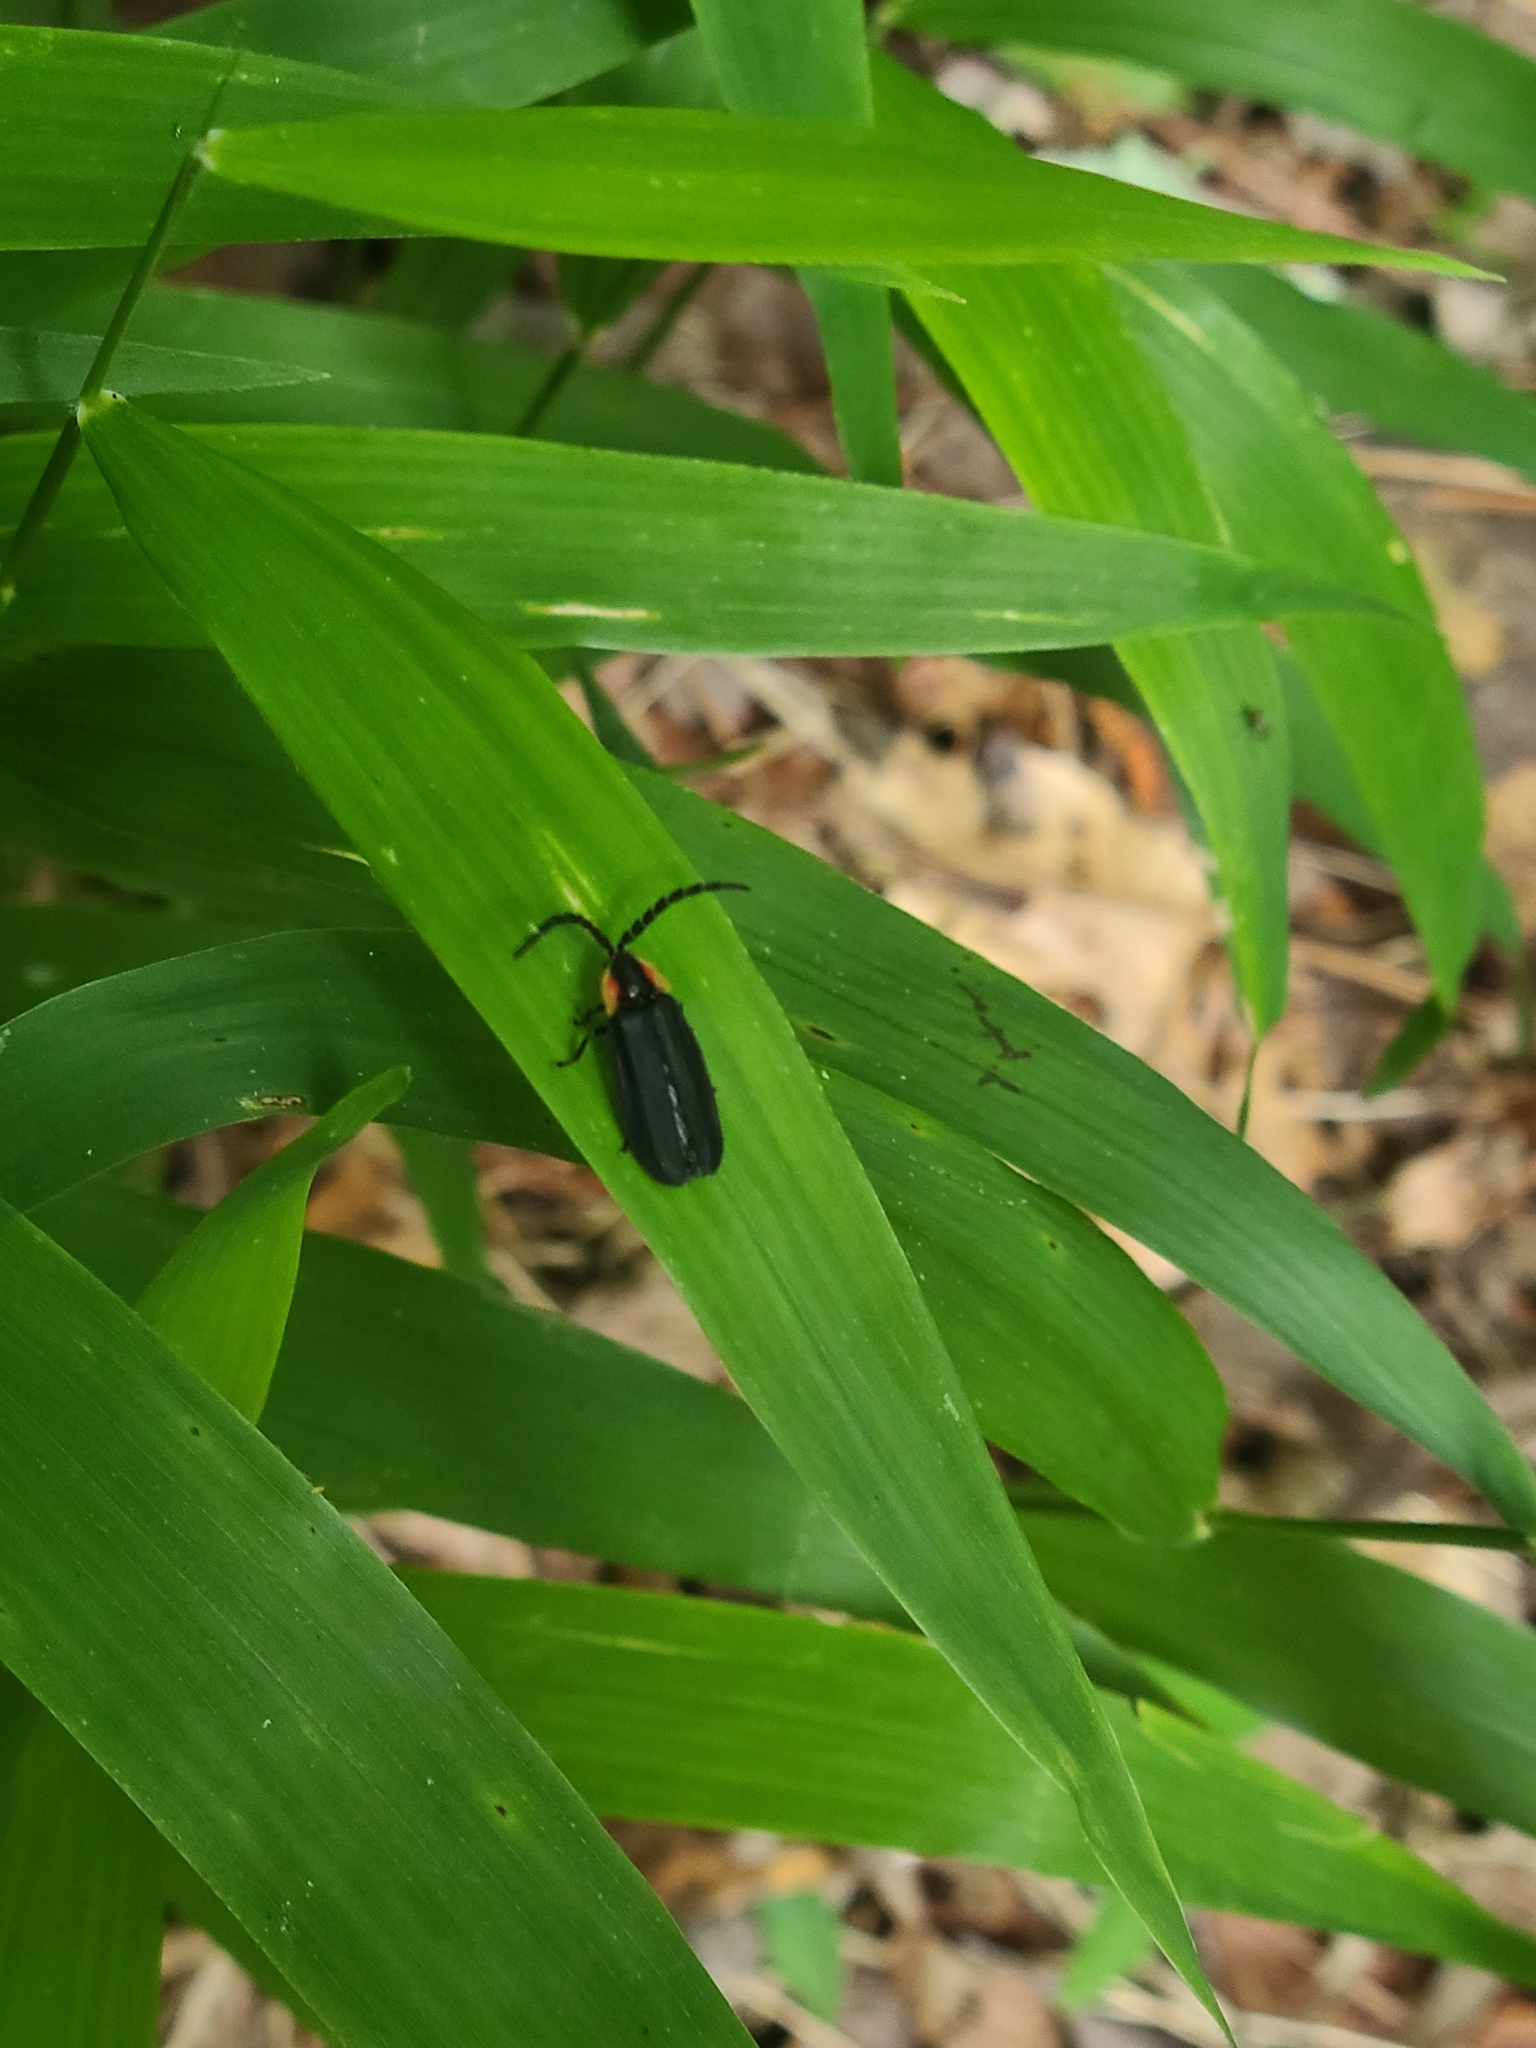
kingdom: Animalia
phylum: Arthropoda
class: Insecta
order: Coleoptera
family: Lampyridae
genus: Lucidota
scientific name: Lucidota atra
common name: Black firefly
